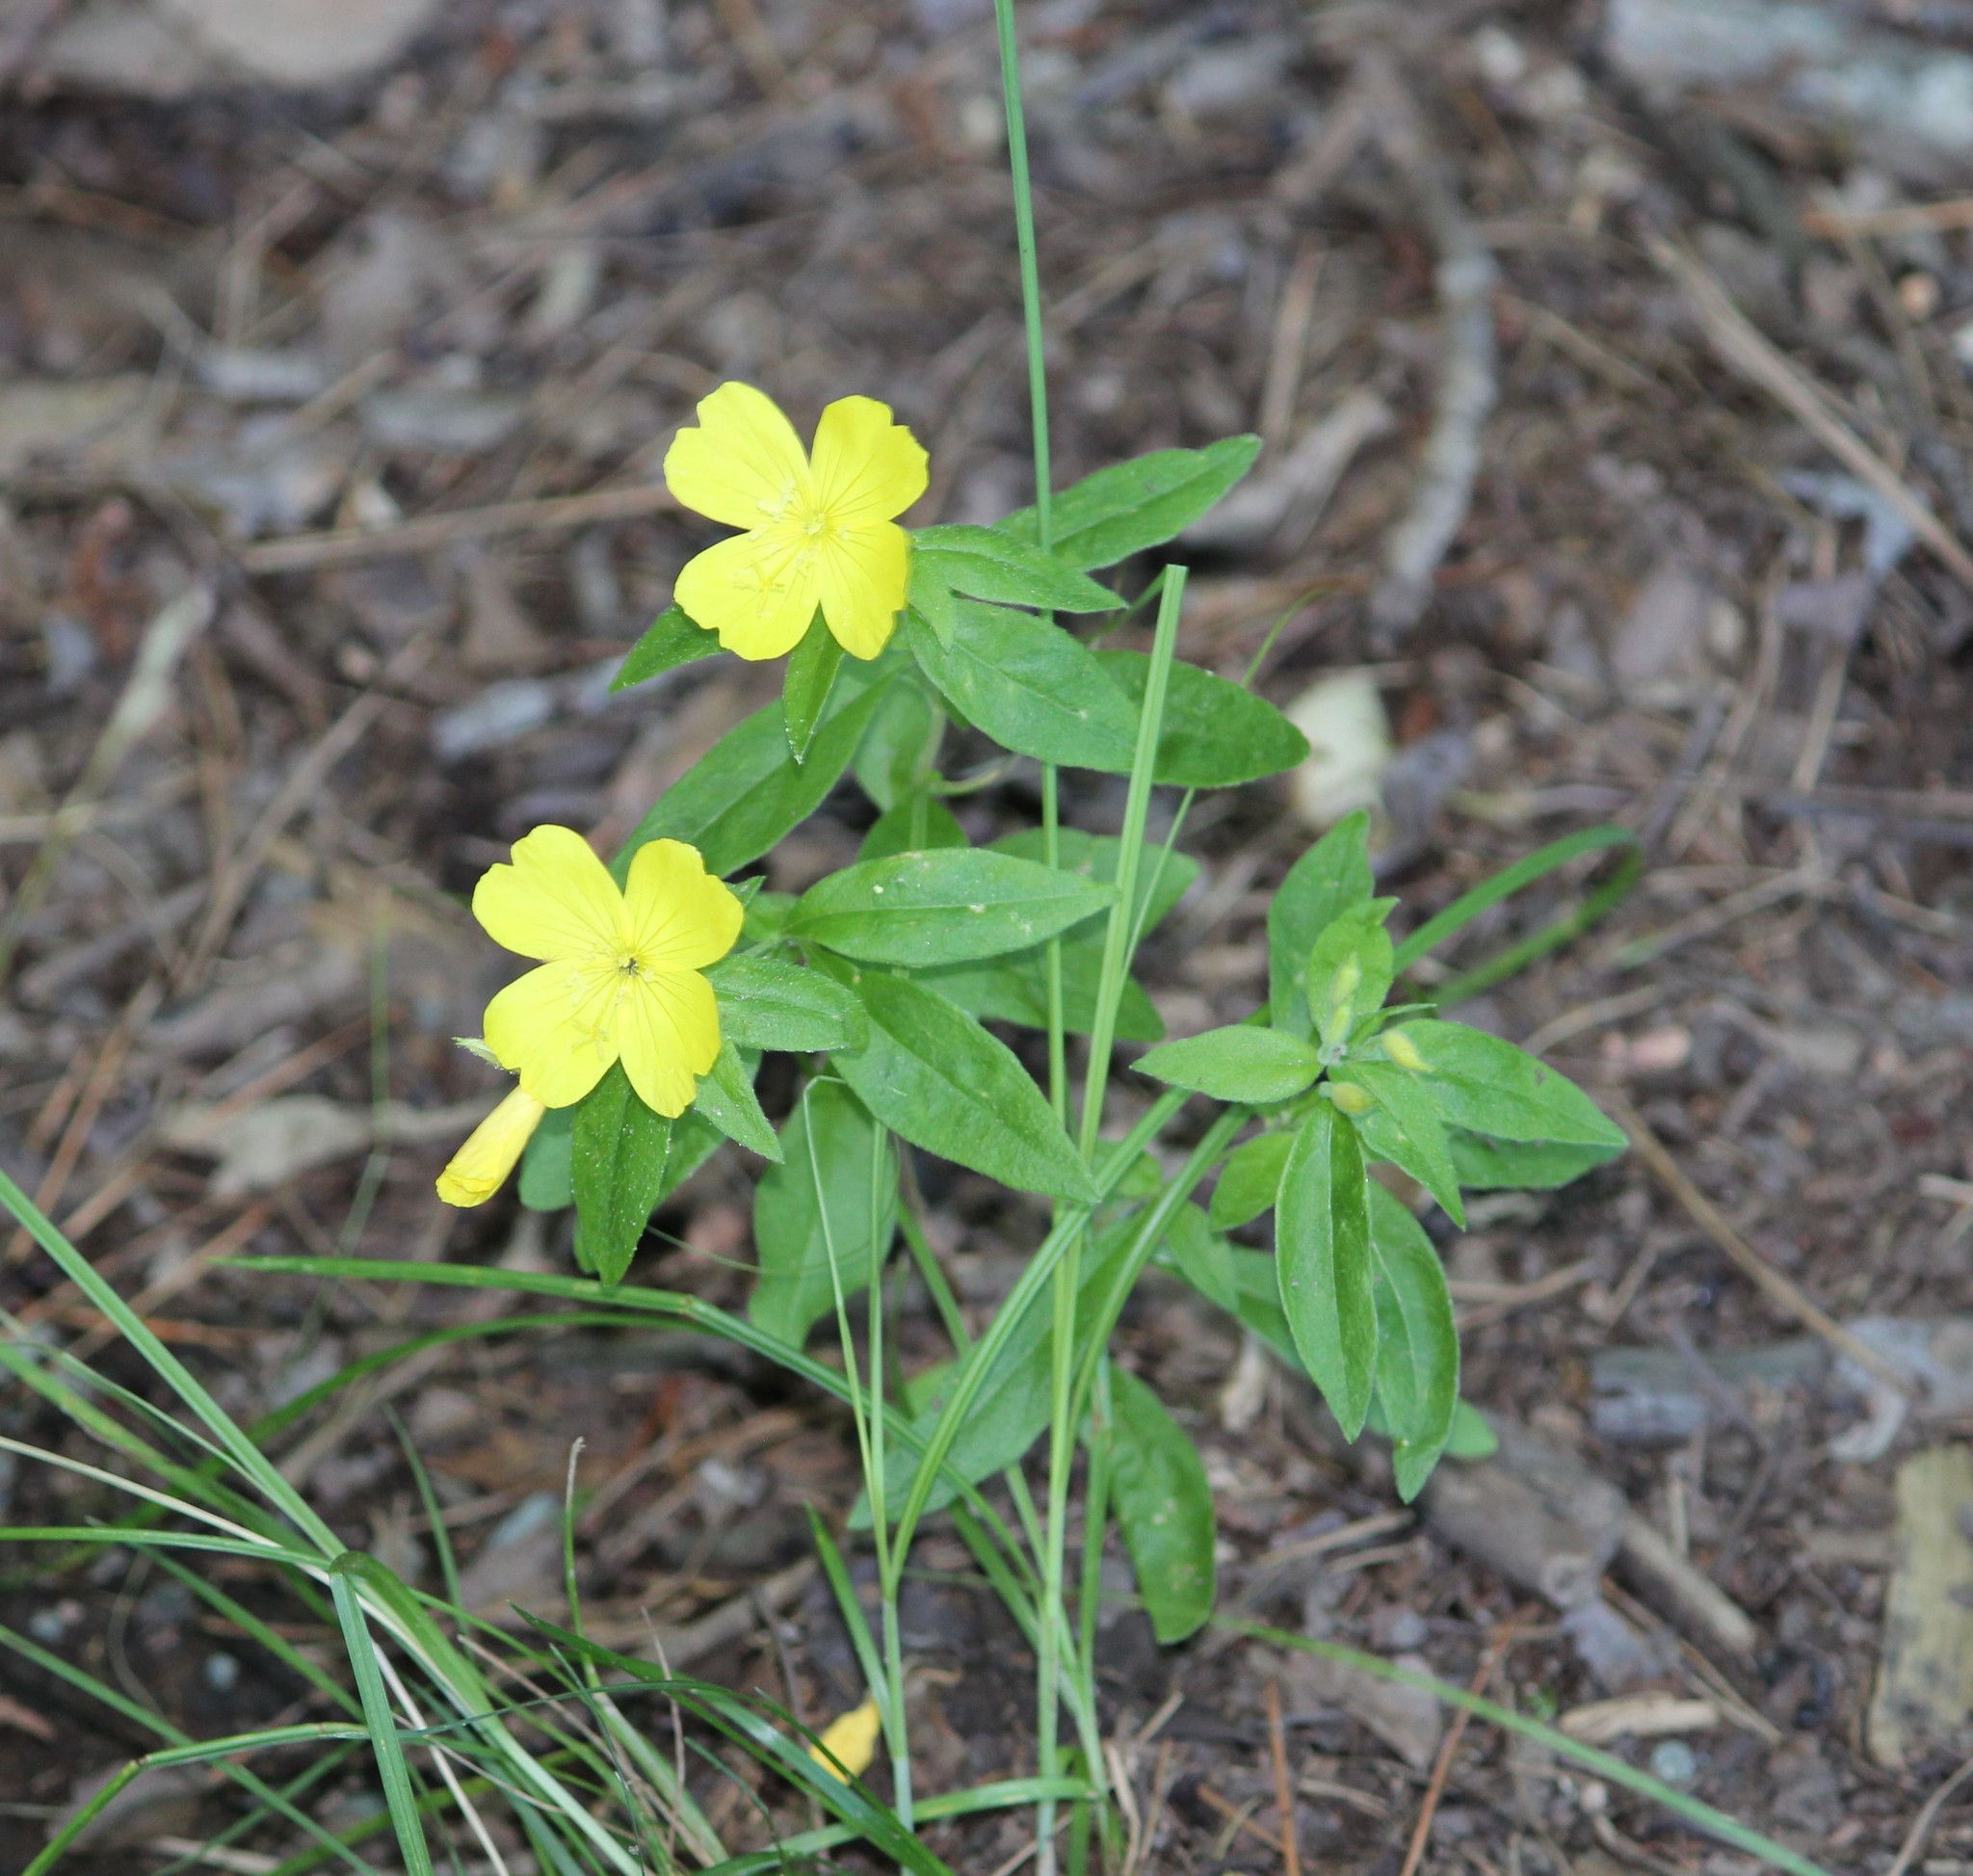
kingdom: Plantae
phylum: Tracheophyta
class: Magnoliopsida
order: Myrtales
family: Onagraceae
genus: Oenothera
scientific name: Oenothera fruticosa
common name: Southern sundrops
